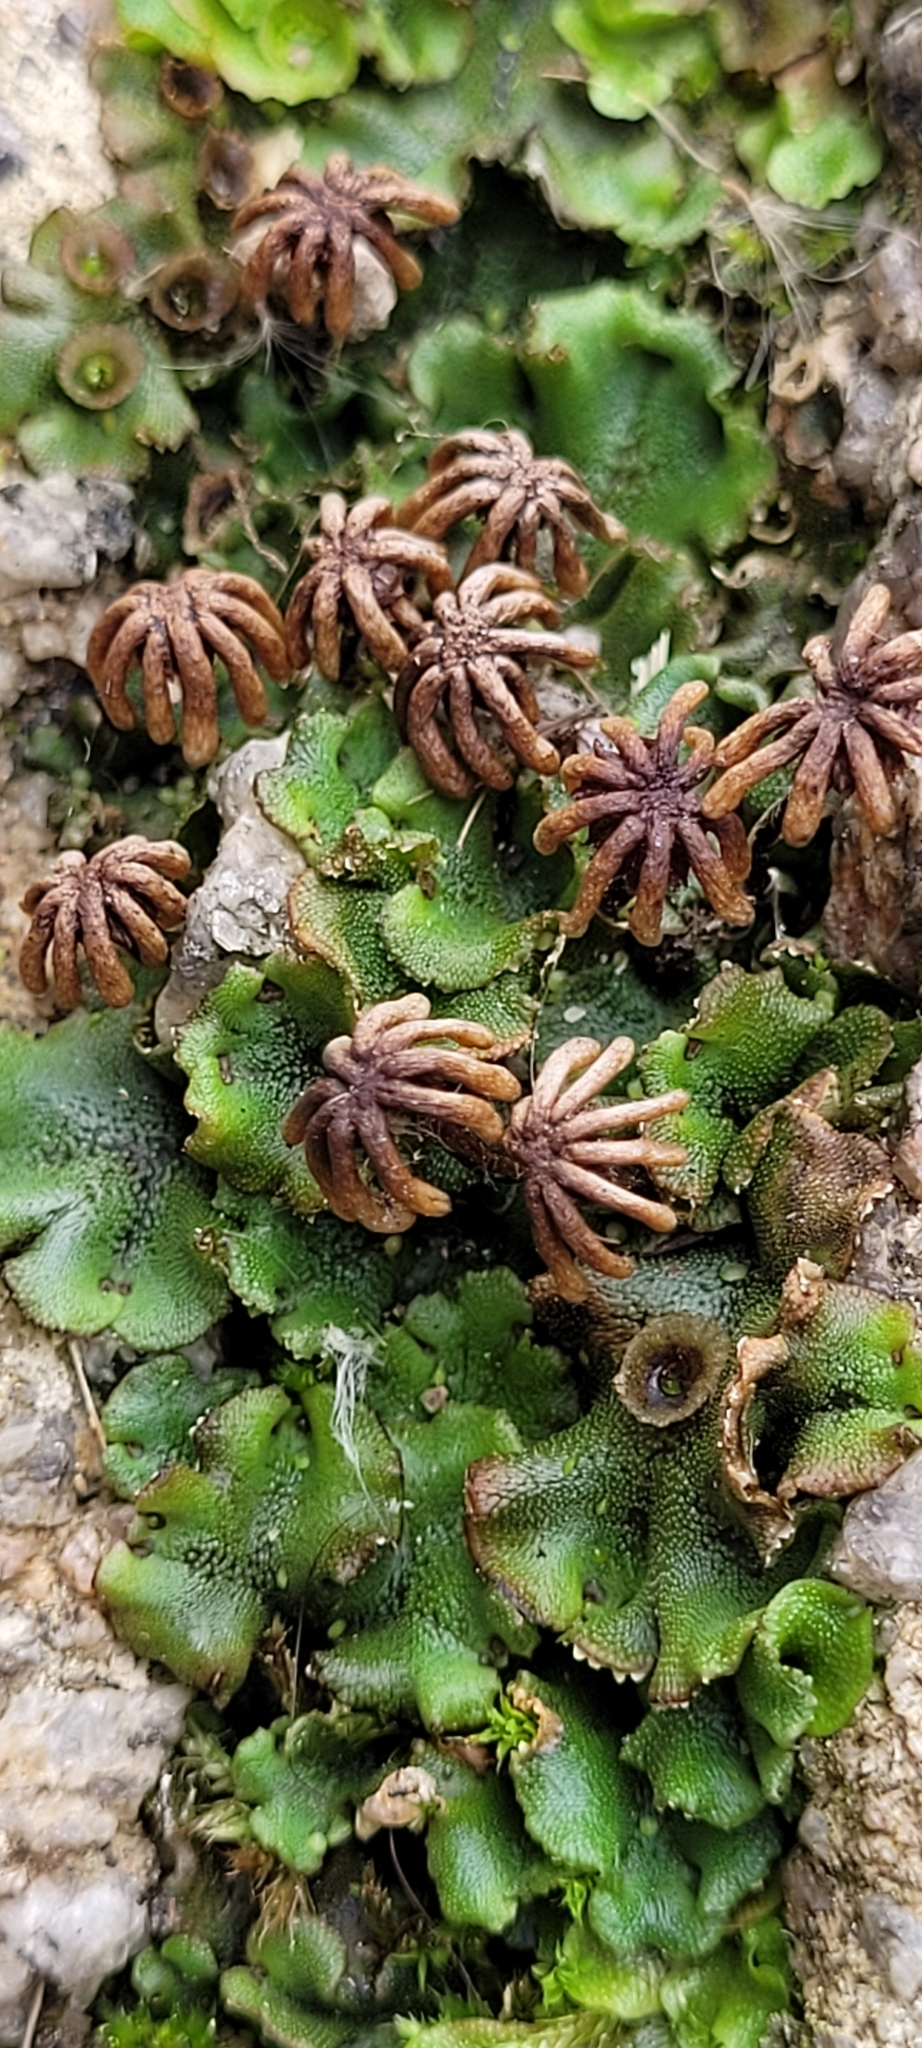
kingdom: Plantae
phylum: Marchantiophyta
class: Marchantiopsida
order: Marchantiales
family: Marchantiaceae
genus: Marchantia
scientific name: Marchantia polymorpha
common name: Common liverwort
